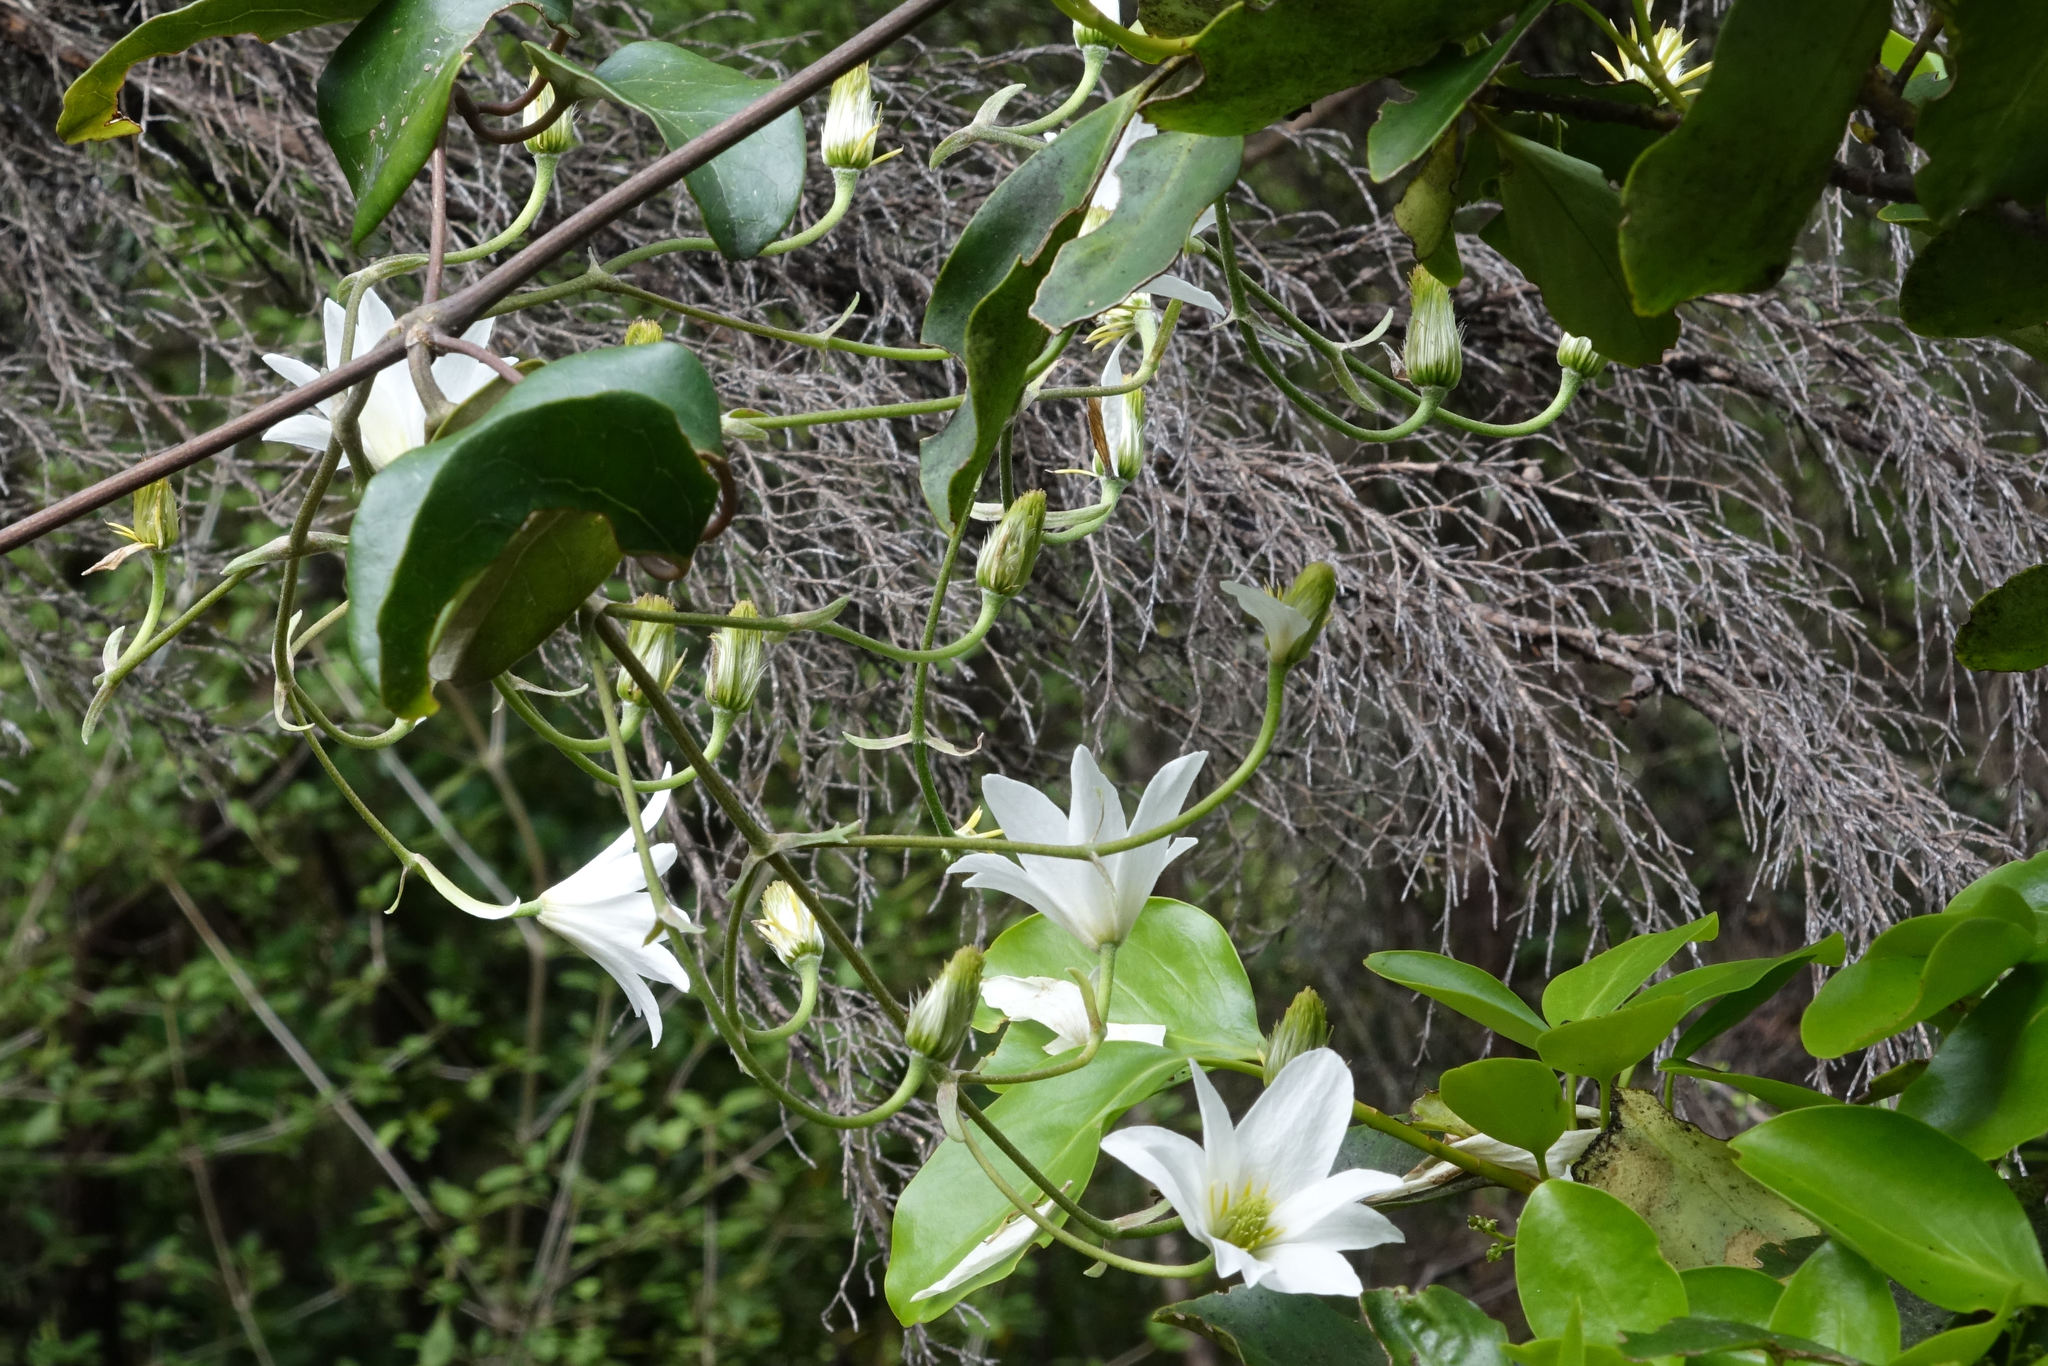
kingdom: Plantae
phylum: Tracheophyta
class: Magnoliopsida
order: Ranunculales
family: Ranunculaceae
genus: Clematis
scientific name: Clematis paniculata
